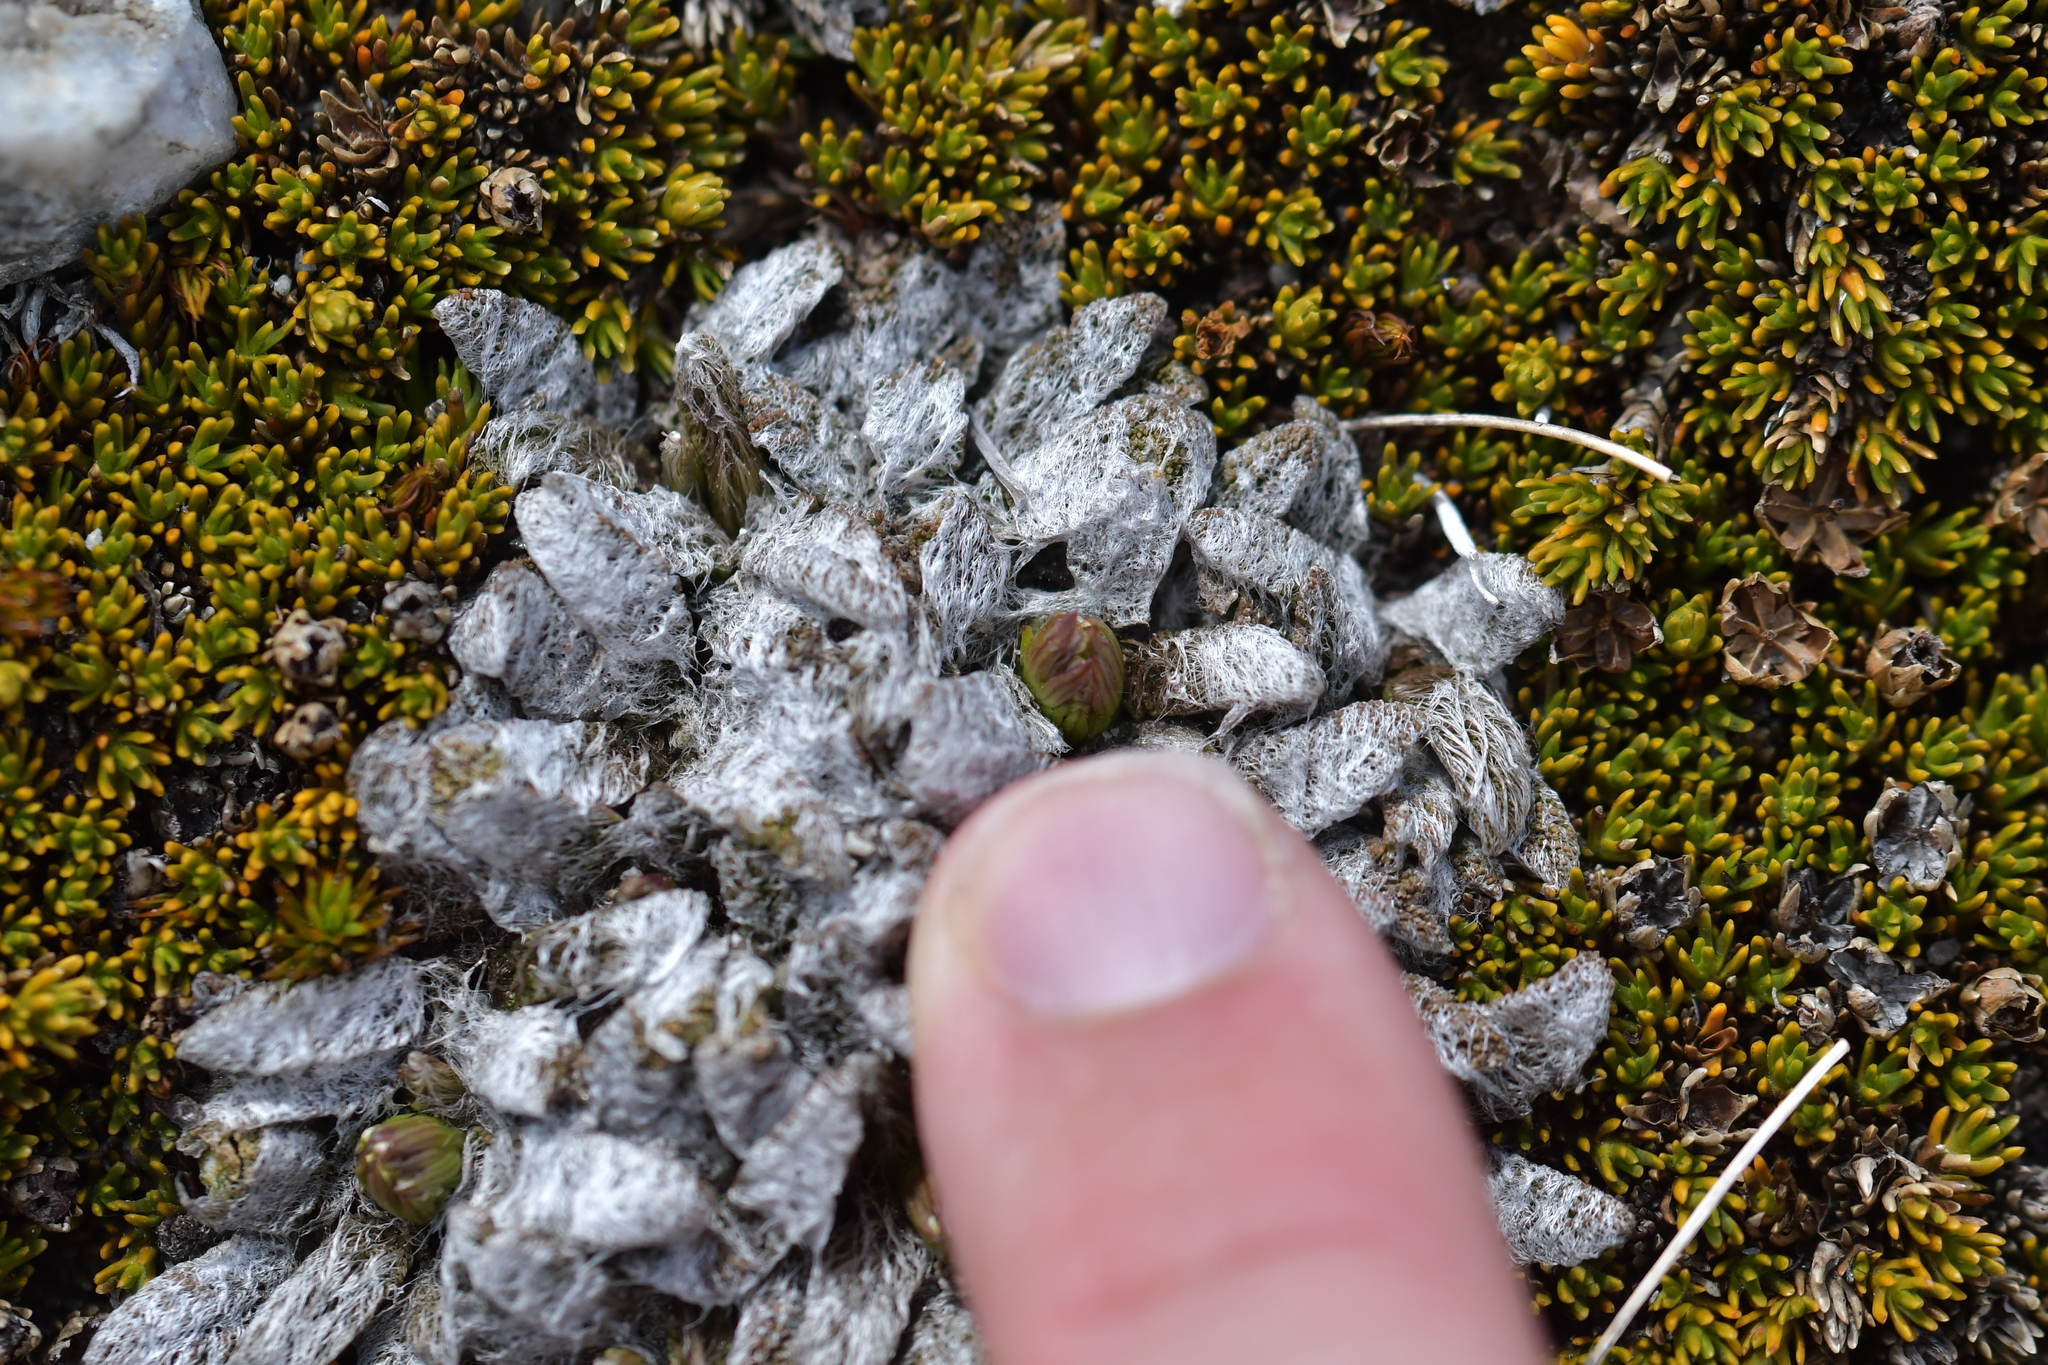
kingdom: Plantae
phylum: Tracheophyta
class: Magnoliopsida
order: Apiales
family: Apiaceae
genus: Anisotome
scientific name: Anisotome lanuginosa
